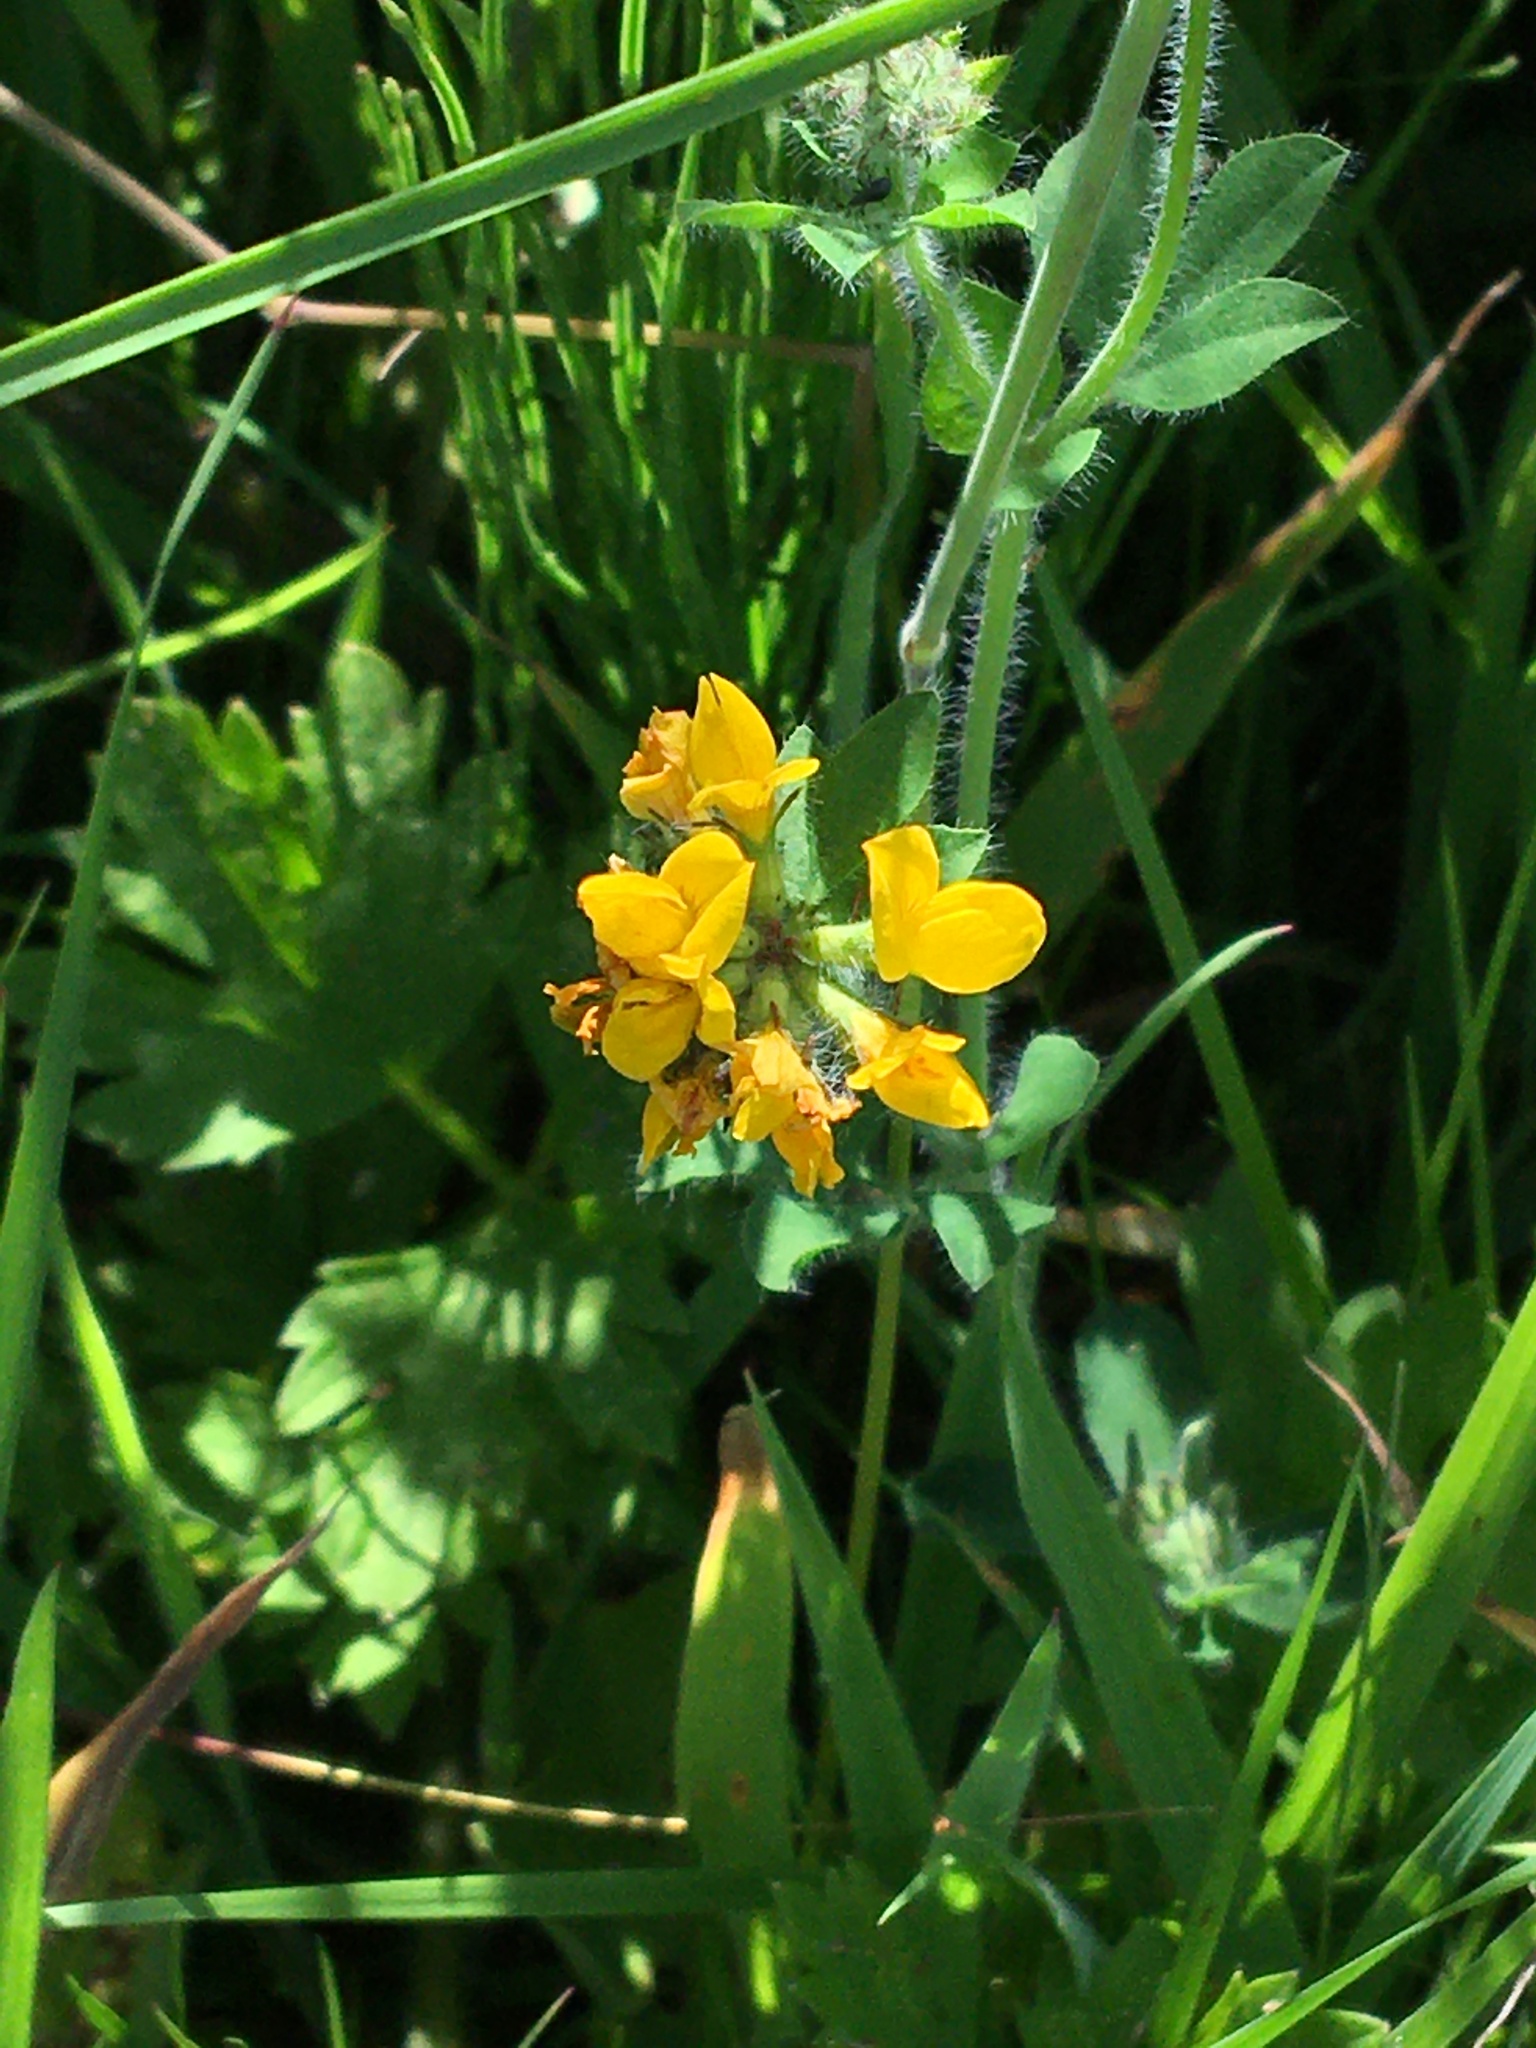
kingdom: Plantae
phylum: Tracheophyta
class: Magnoliopsida
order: Fabales
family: Fabaceae
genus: Lotus
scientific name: Lotus pedunculatus
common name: Greater birdsfoot-trefoil
